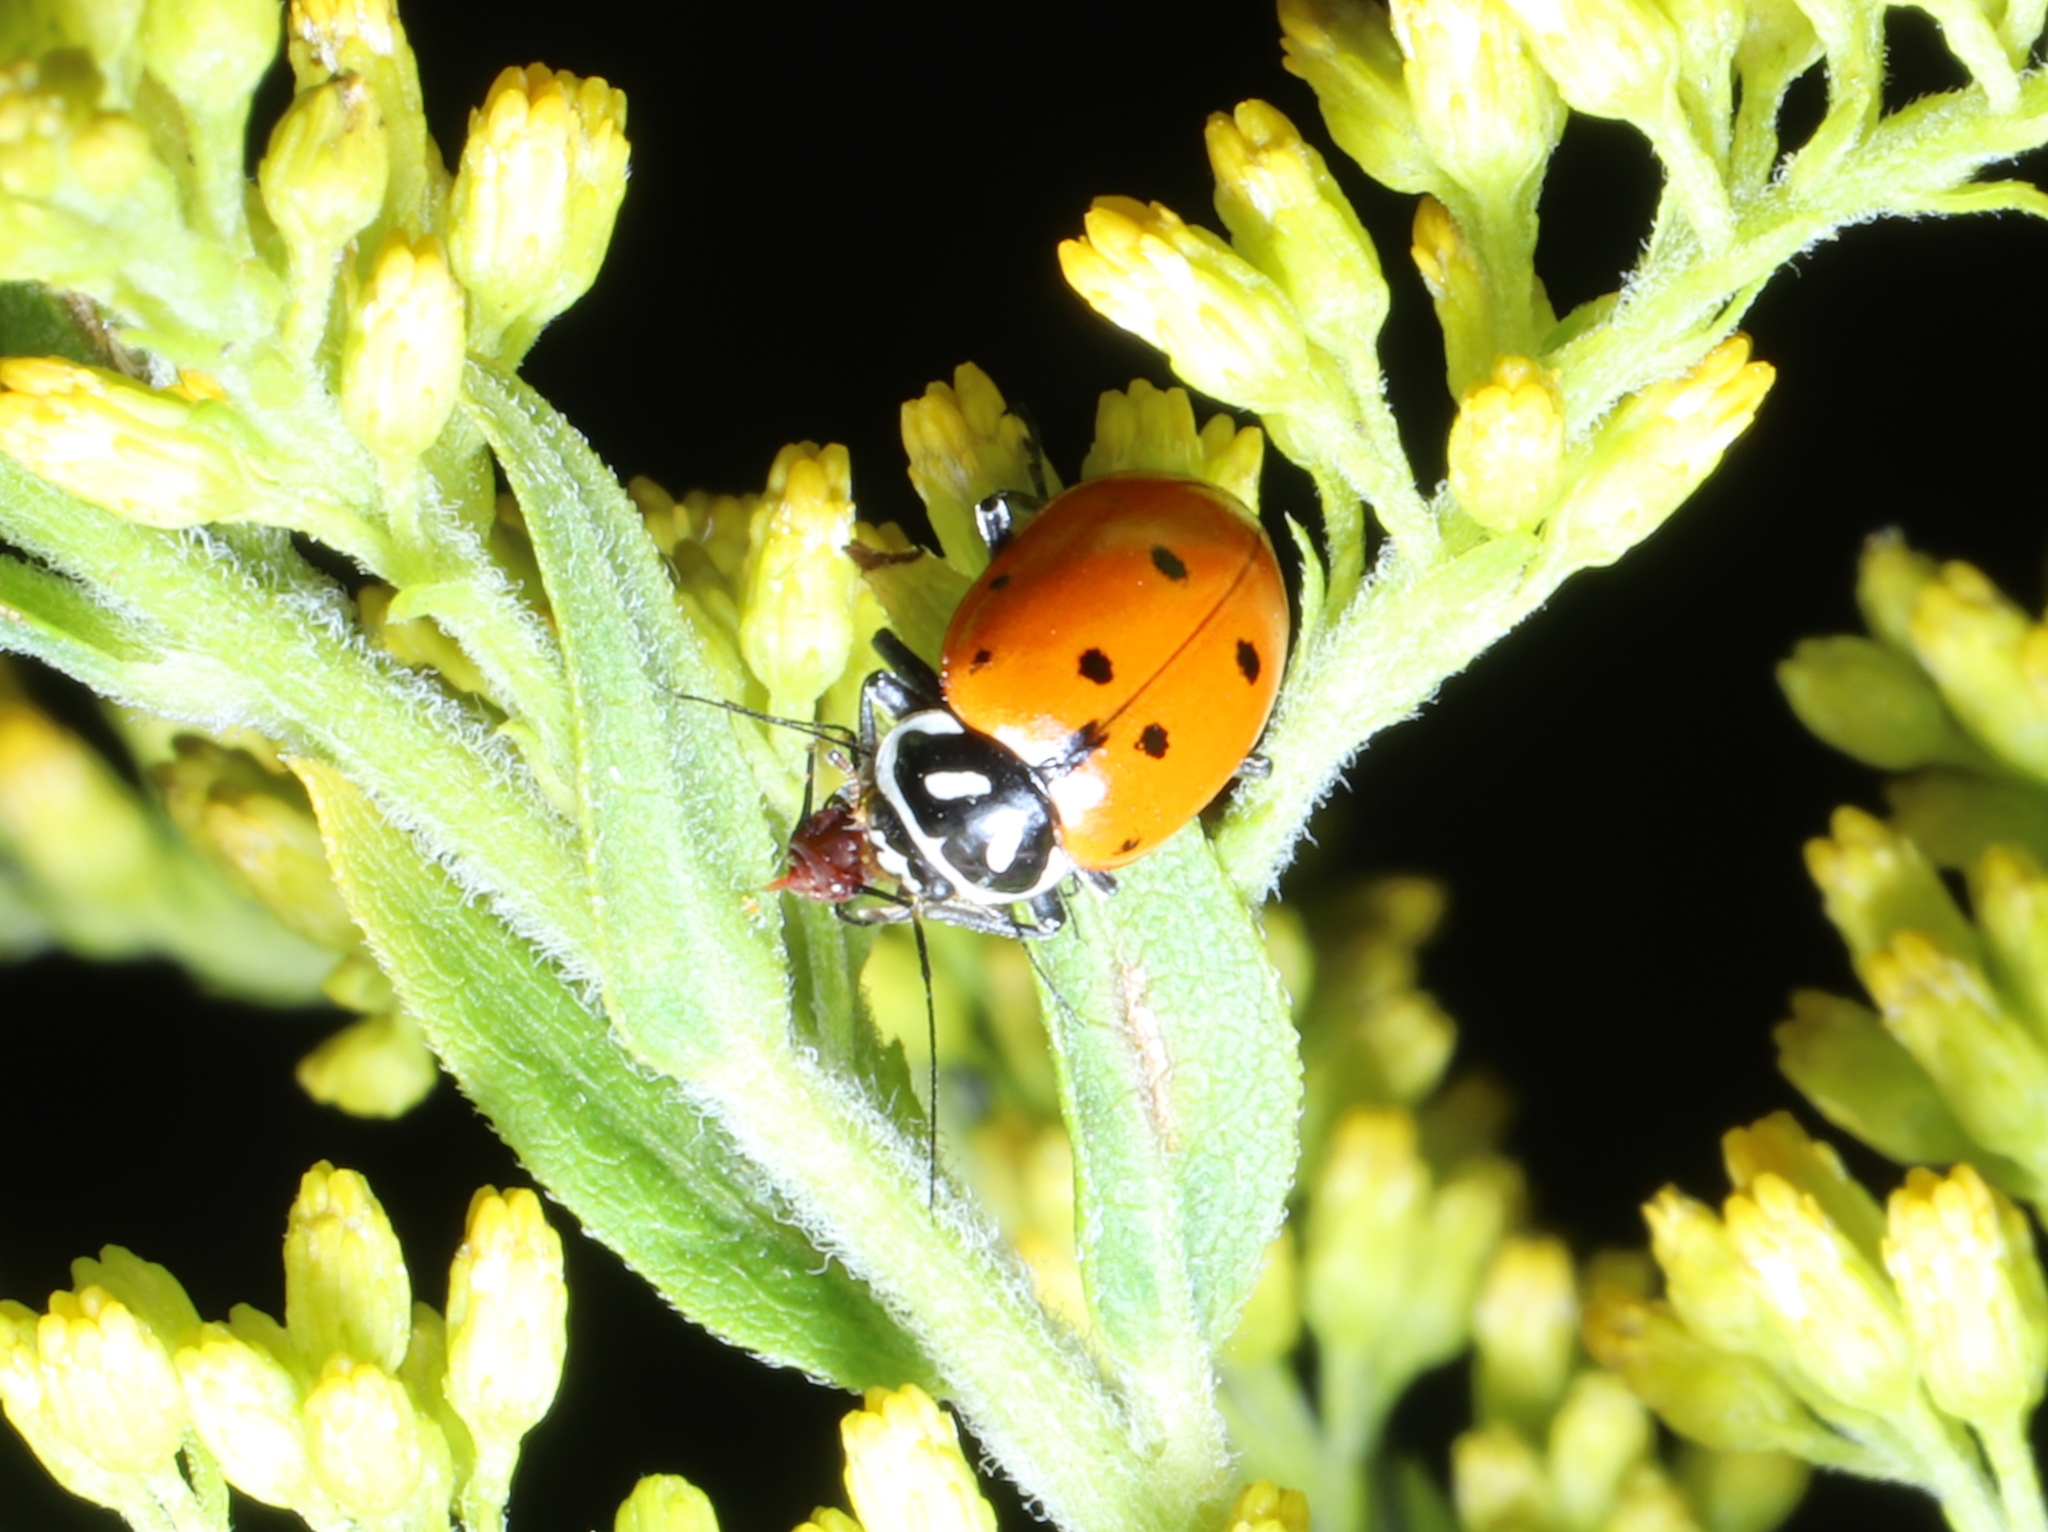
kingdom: Animalia
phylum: Arthropoda
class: Insecta
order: Coleoptera
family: Coccinellidae
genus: Hippodamia
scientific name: Hippodamia convergens
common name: Convergent lady beetle
